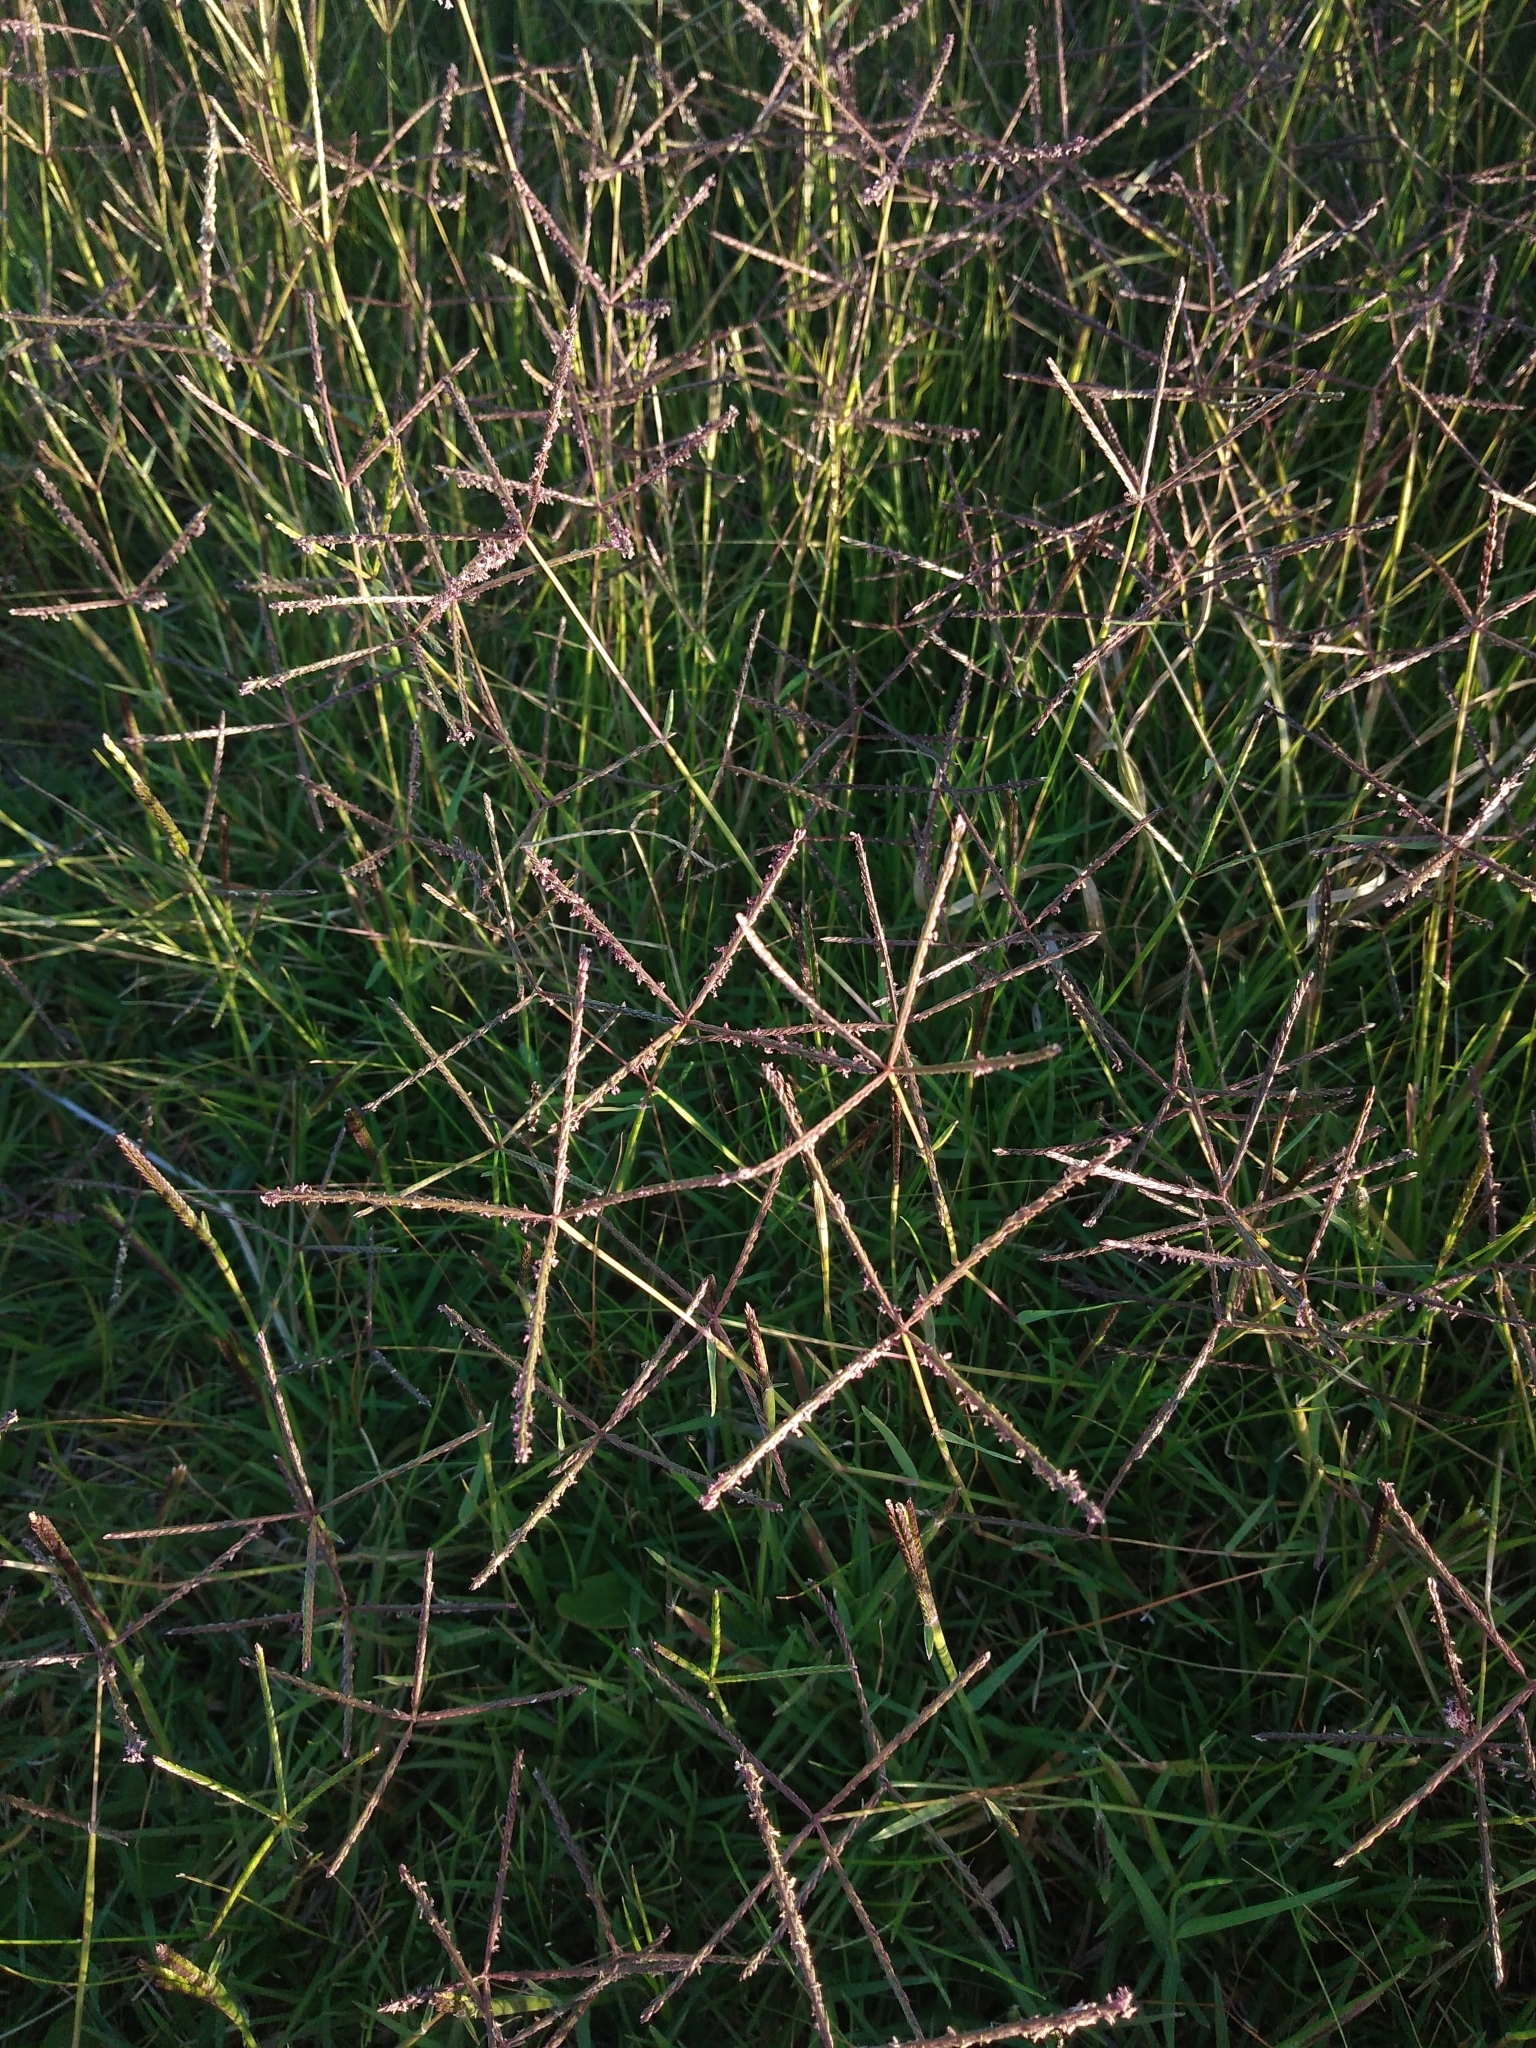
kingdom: Plantae
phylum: Tracheophyta
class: Liliopsida
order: Poales
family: Poaceae
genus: Cynodon
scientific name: Cynodon dactylon
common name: Bermuda grass
